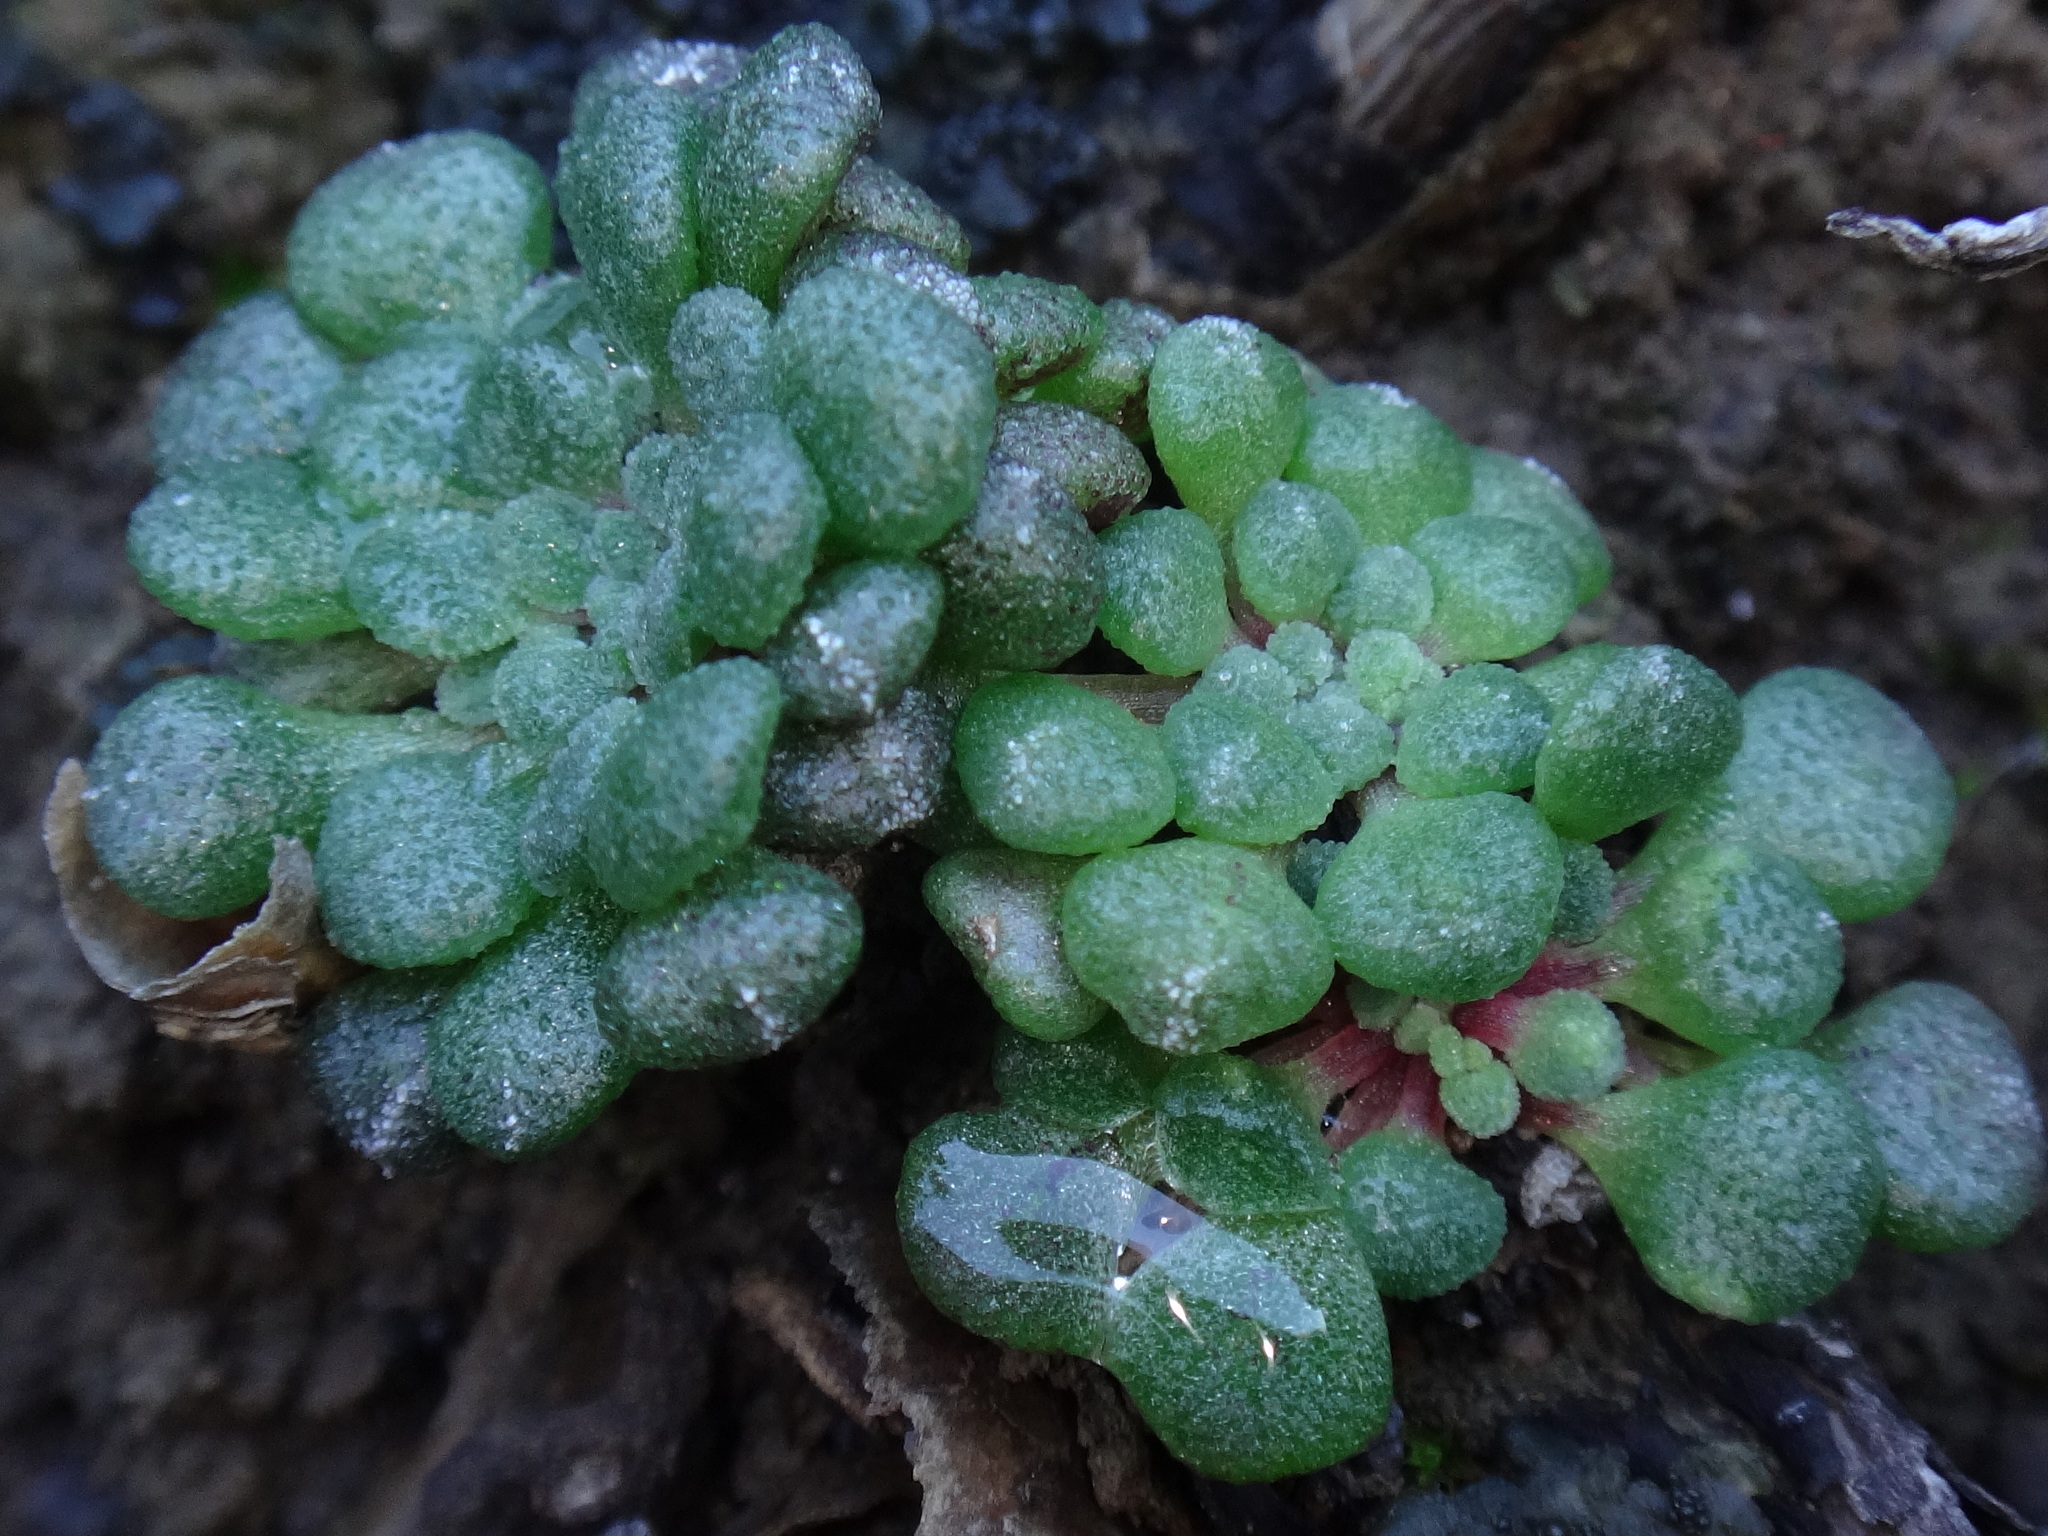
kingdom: Plantae
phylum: Tracheophyta
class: Magnoliopsida
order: Saxifragales
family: Crassulaceae
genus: Monanthes
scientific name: Monanthes brachycaulos
